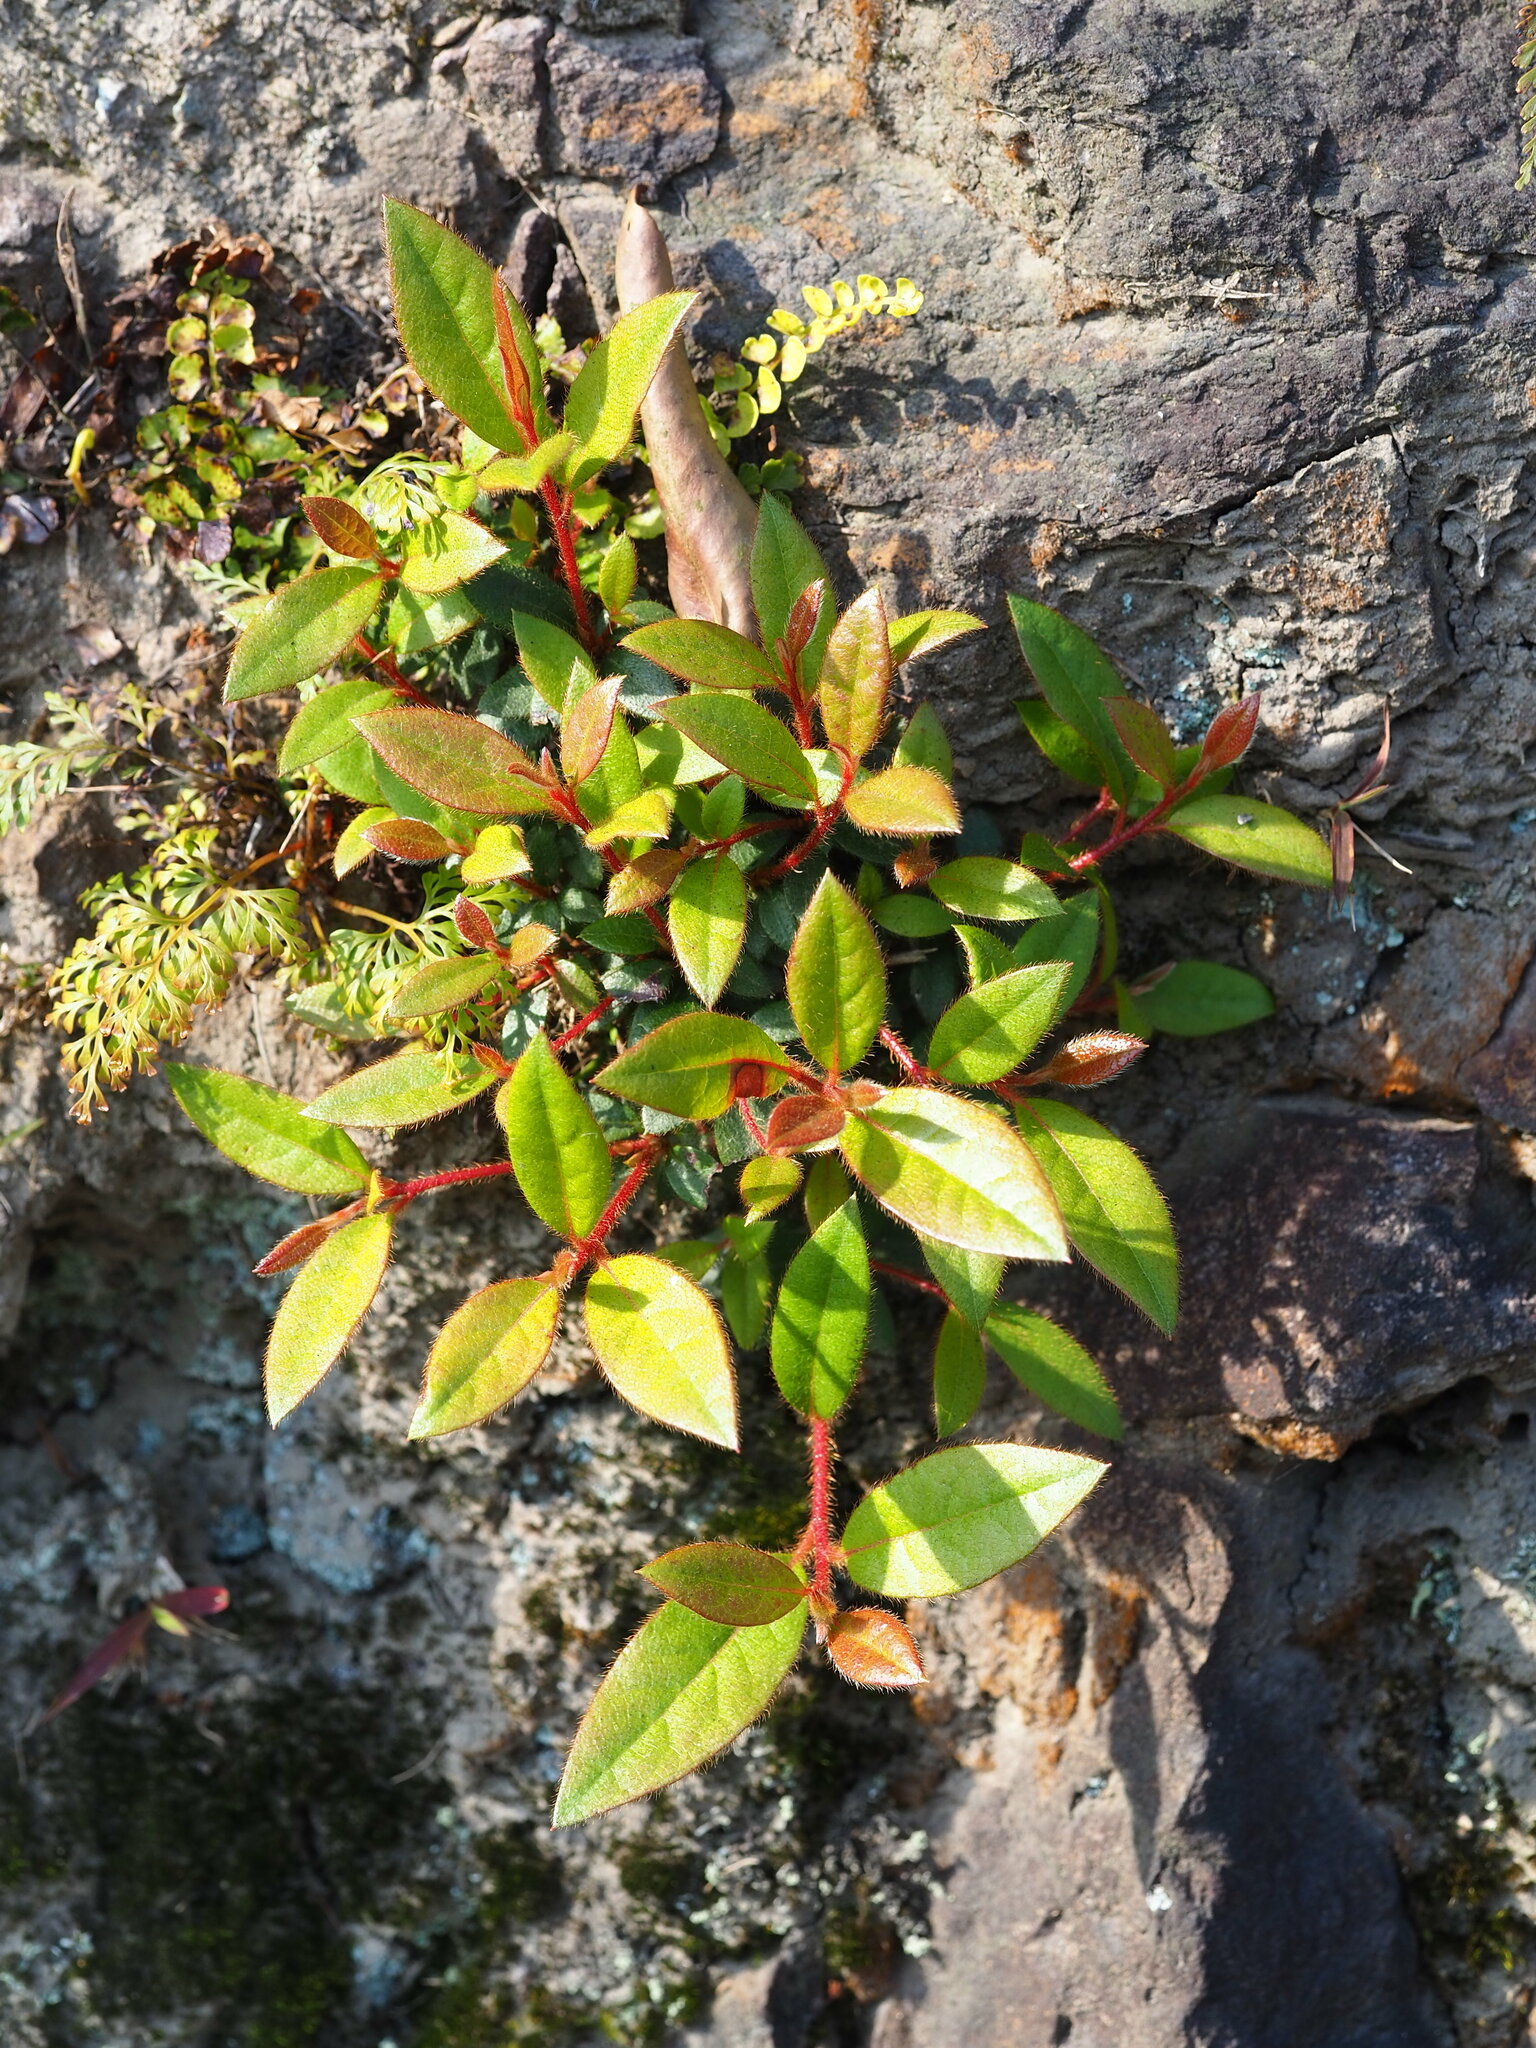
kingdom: Plantae
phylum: Tracheophyta
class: Magnoliopsida
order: Ericales
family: Ericaceae
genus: Rhododendron
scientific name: Rhododendron oldhamii
